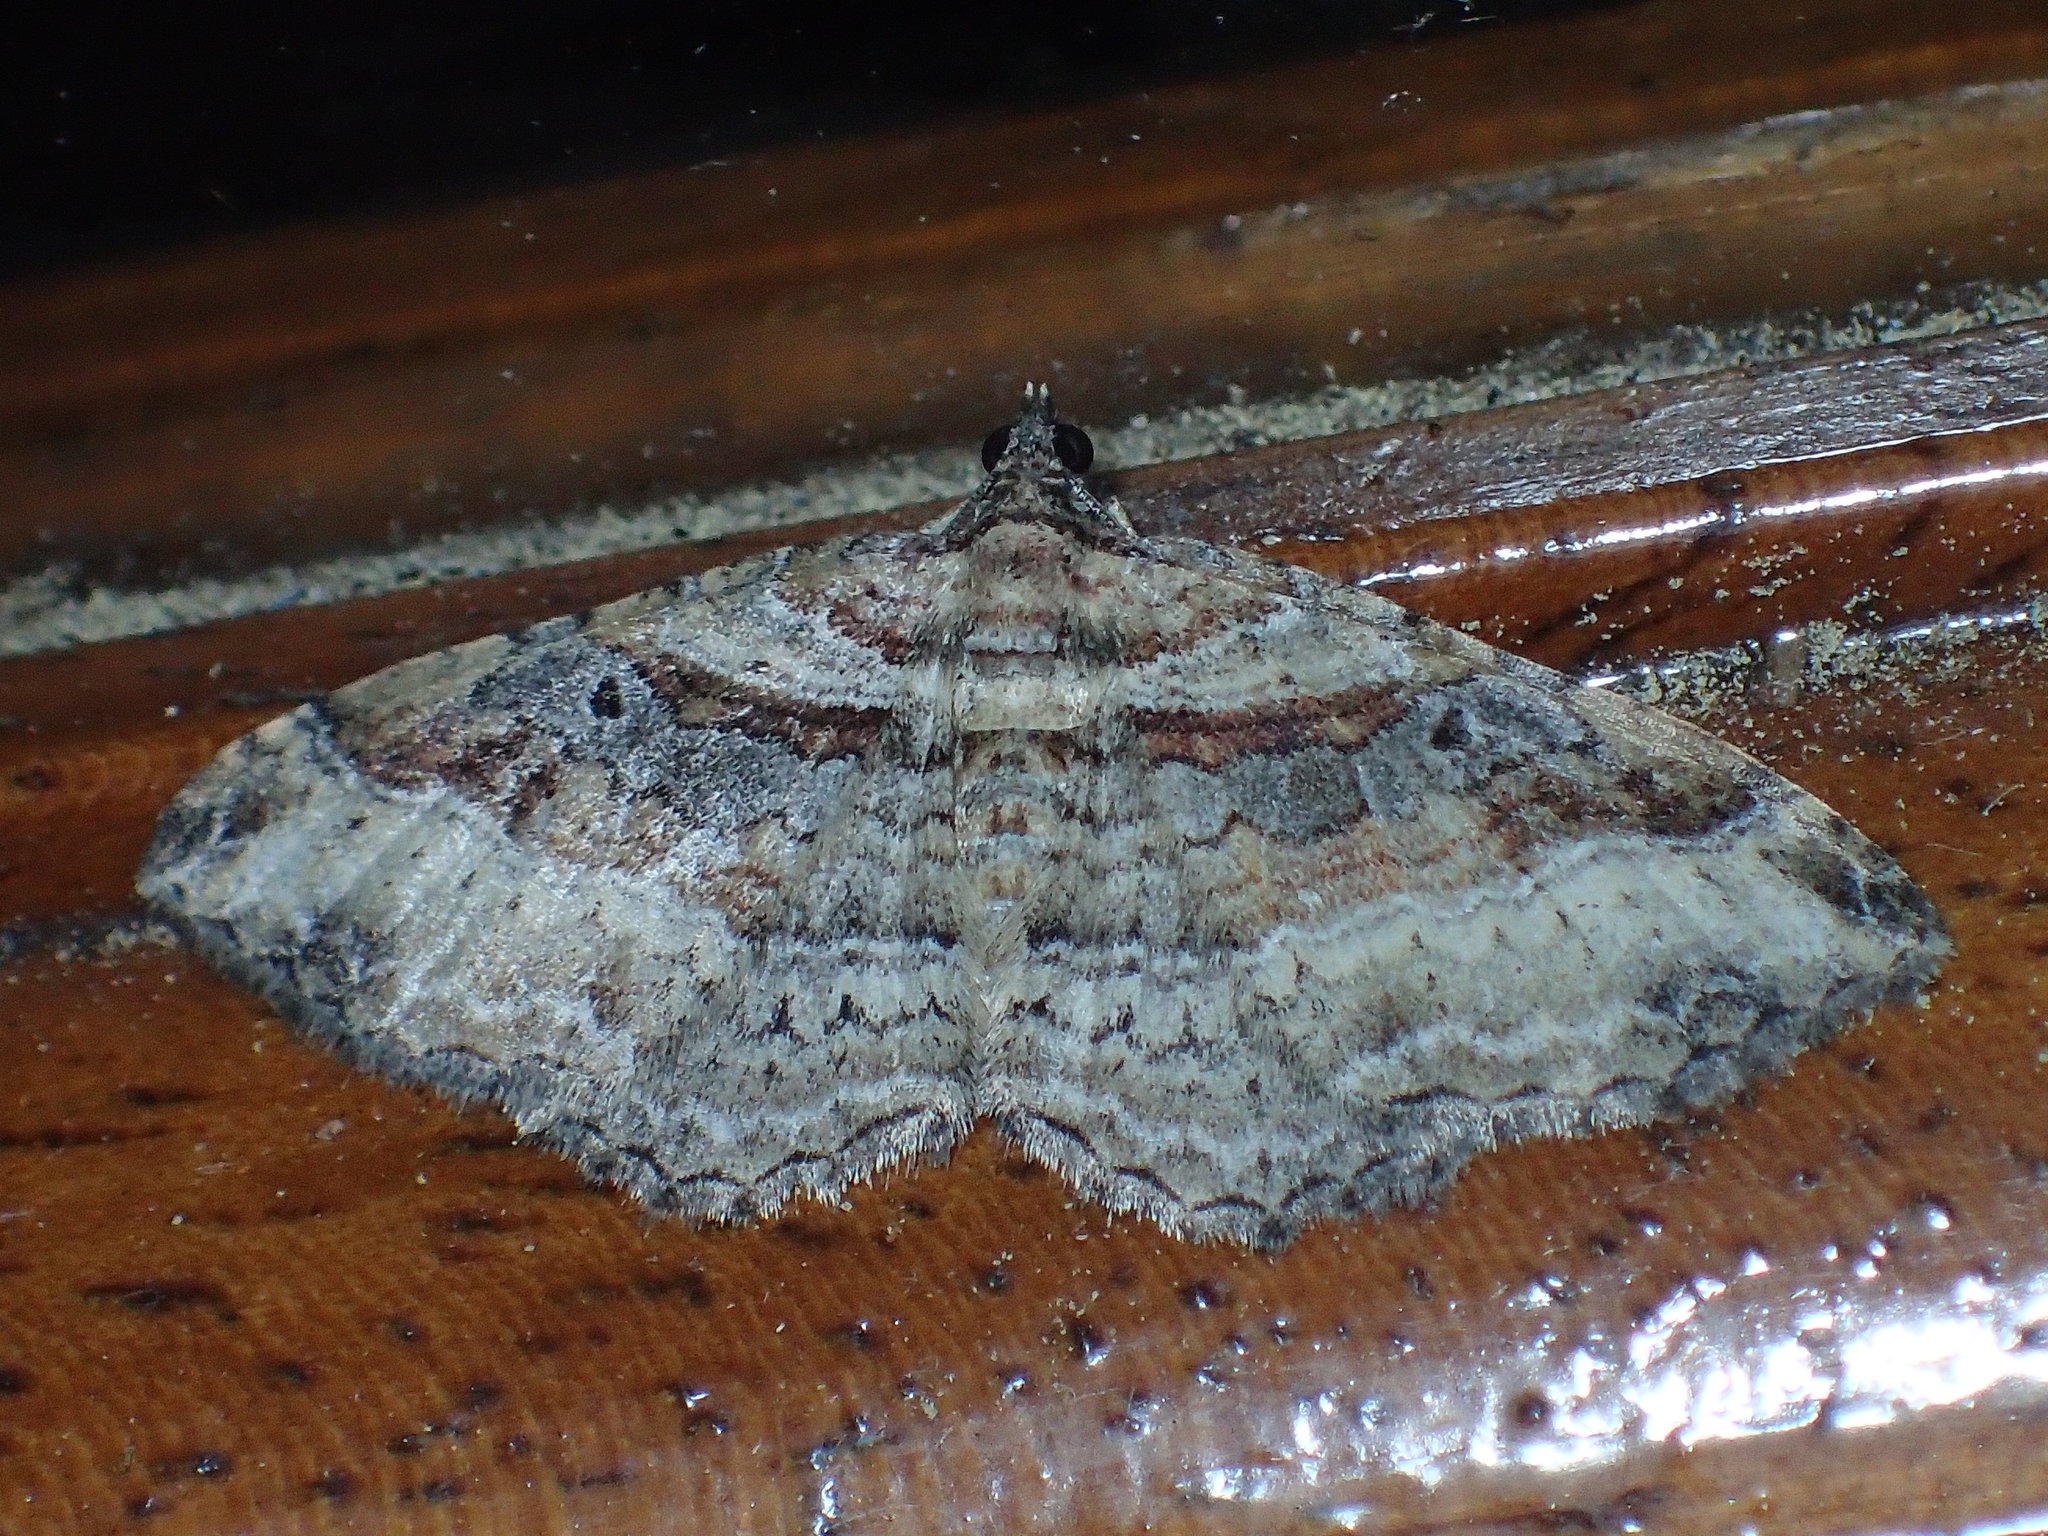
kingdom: Animalia
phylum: Arthropoda
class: Insecta
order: Lepidoptera
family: Geometridae
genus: Costaconvexa
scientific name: Costaconvexa centrostrigaria
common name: Bent-line carpet
